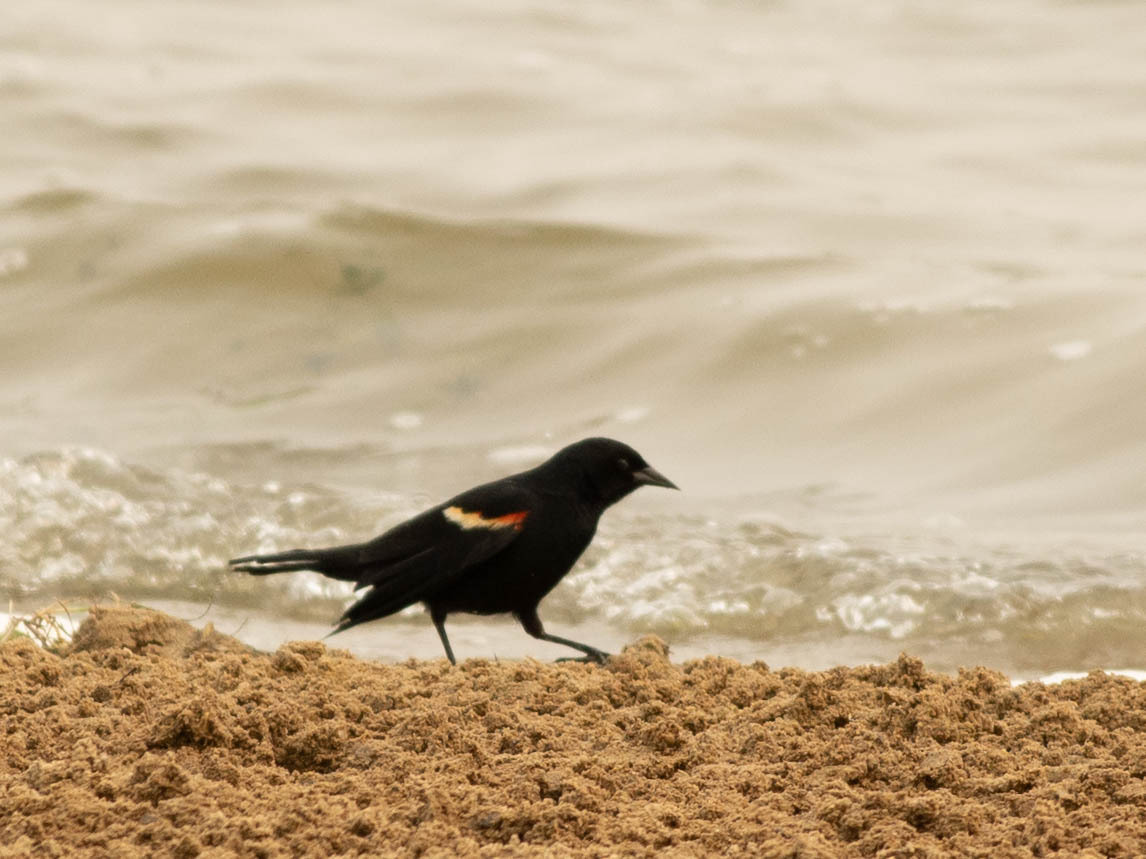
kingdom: Animalia
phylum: Chordata
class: Aves
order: Passeriformes
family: Icteridae
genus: Agelaius
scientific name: Agelaius phoeniceus
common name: Red-winged blackbird
